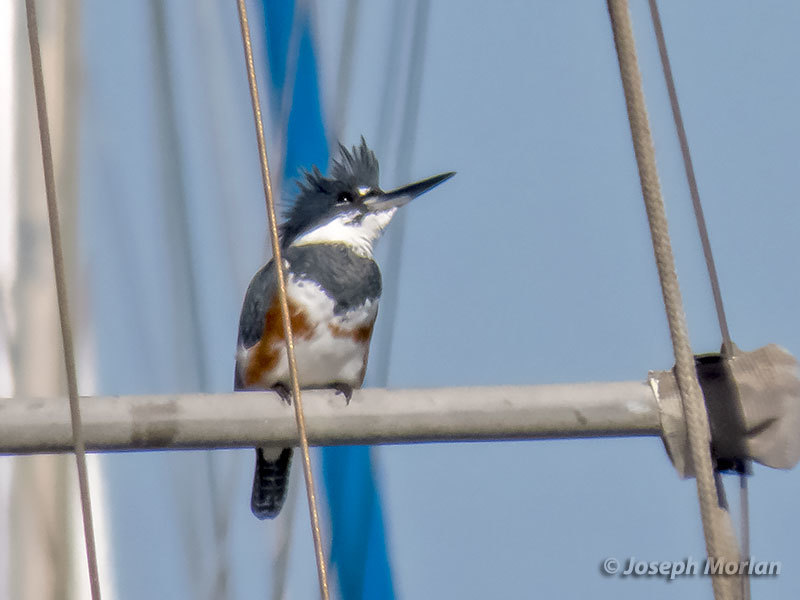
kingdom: Animalia
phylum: Chordata
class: Aves
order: Coraciiformes
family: Alcedinidae
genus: Megaceryle
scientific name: Megaceryle alcyon
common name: Belted kingfisher
